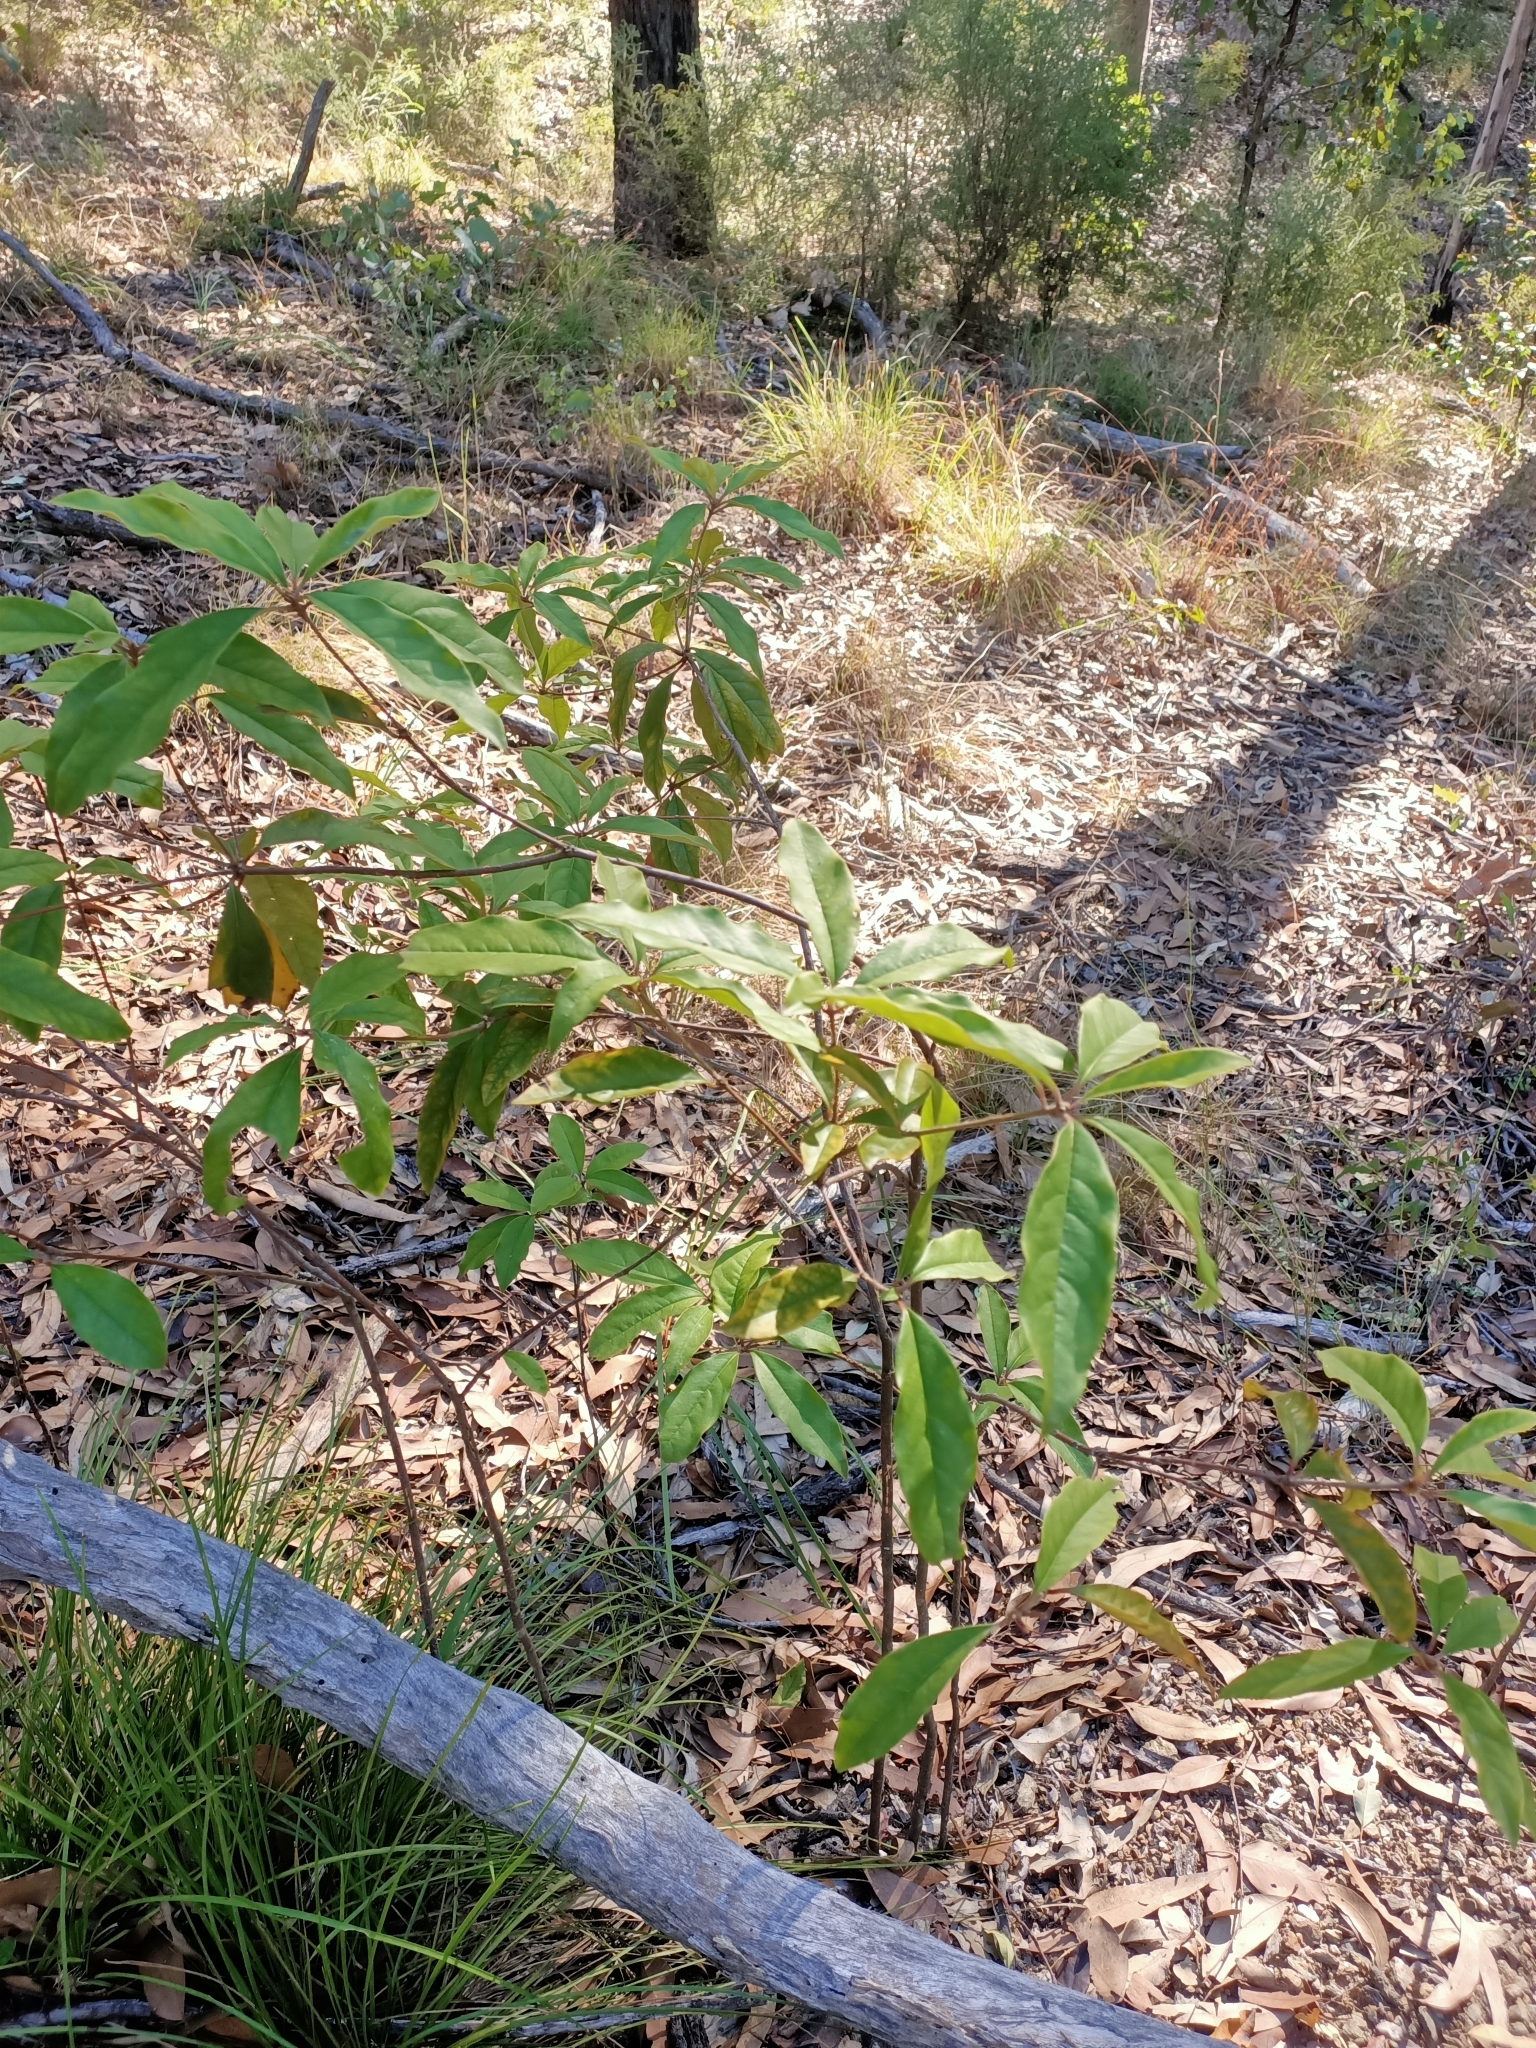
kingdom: Plantae
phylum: Tracheophyta
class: Magnoliopsida
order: Apiales
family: Pittosporaceae
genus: Pittosporum
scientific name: Pittosporum revolutum
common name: Brisbane-laurel
